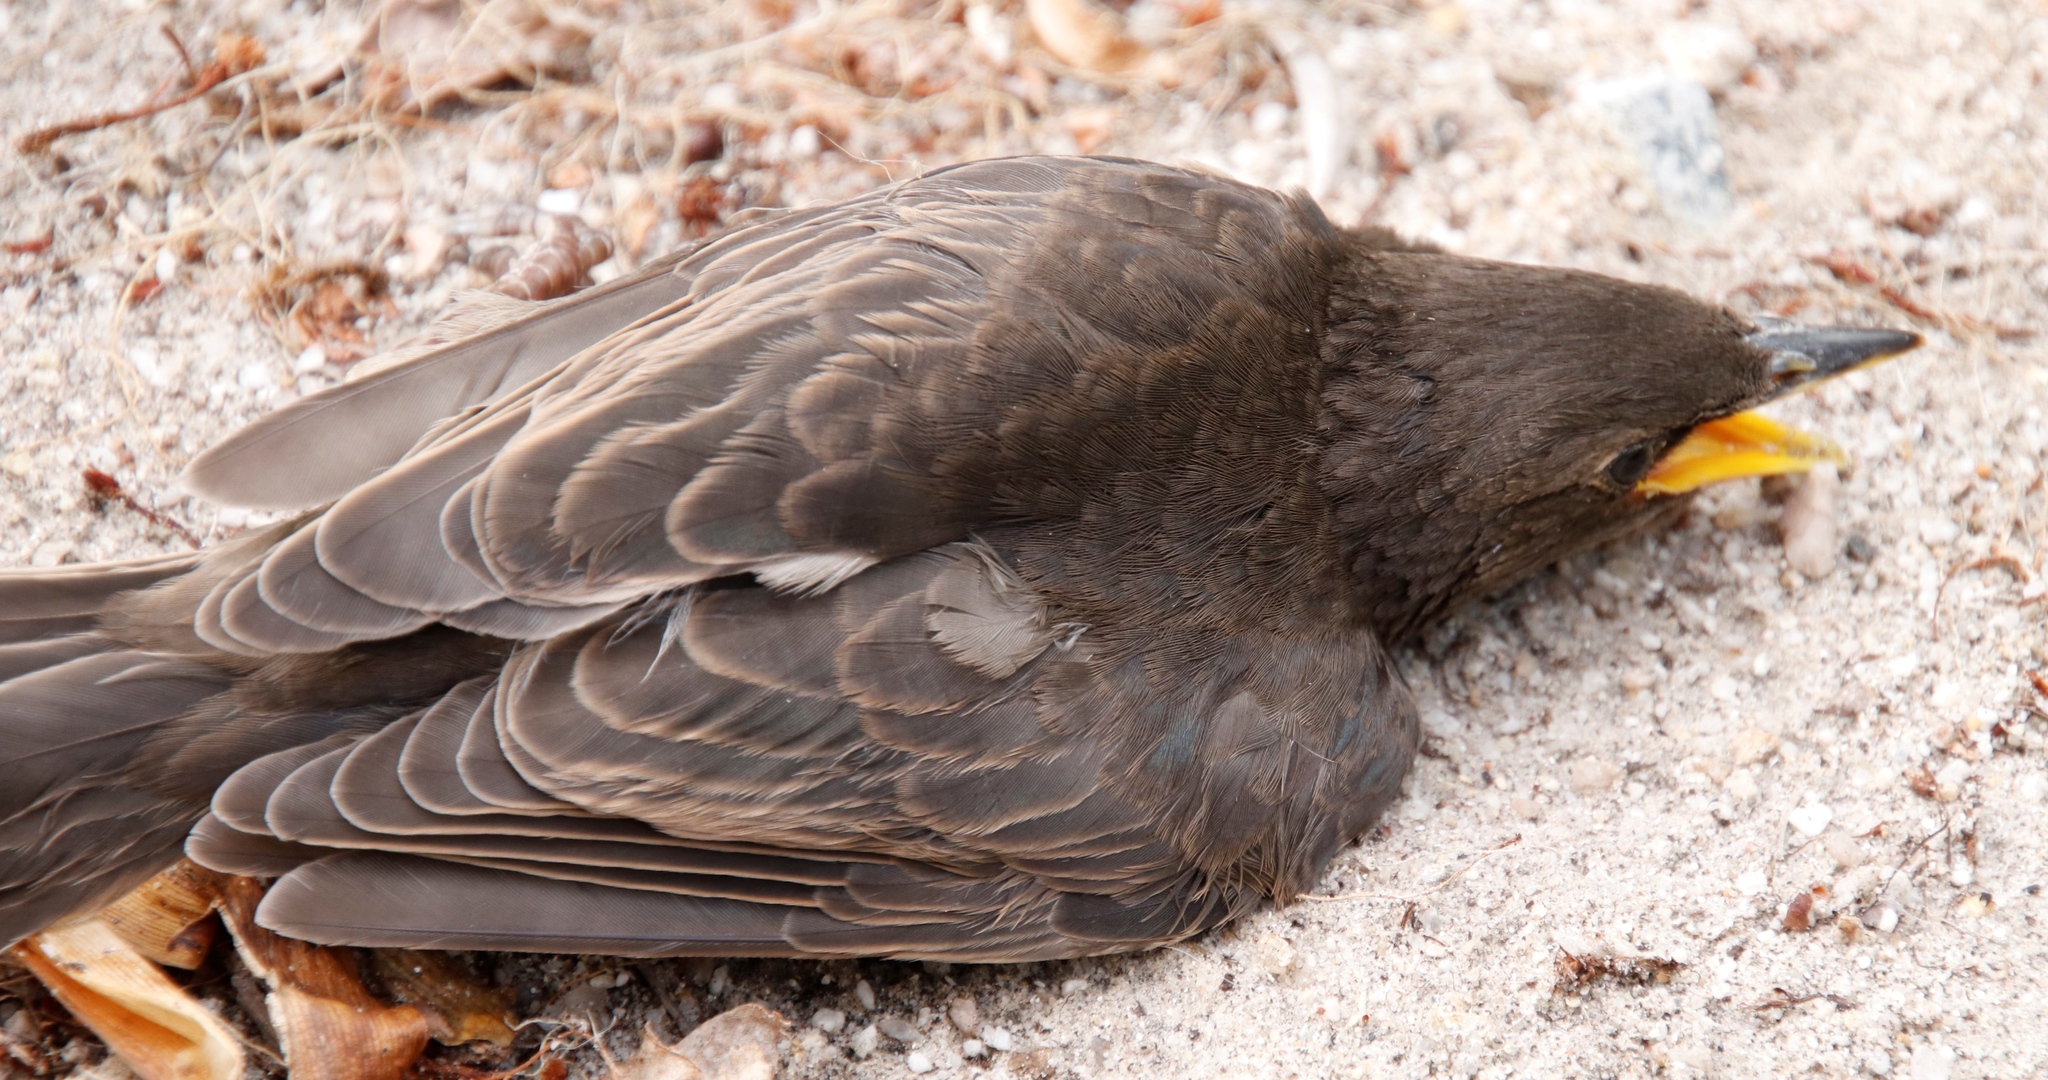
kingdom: Animalia
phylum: Chordata
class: Aves
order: Passeriformes
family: Sturnidae
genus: Sturnus
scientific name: Sturnus vulgaris
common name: Common starling
